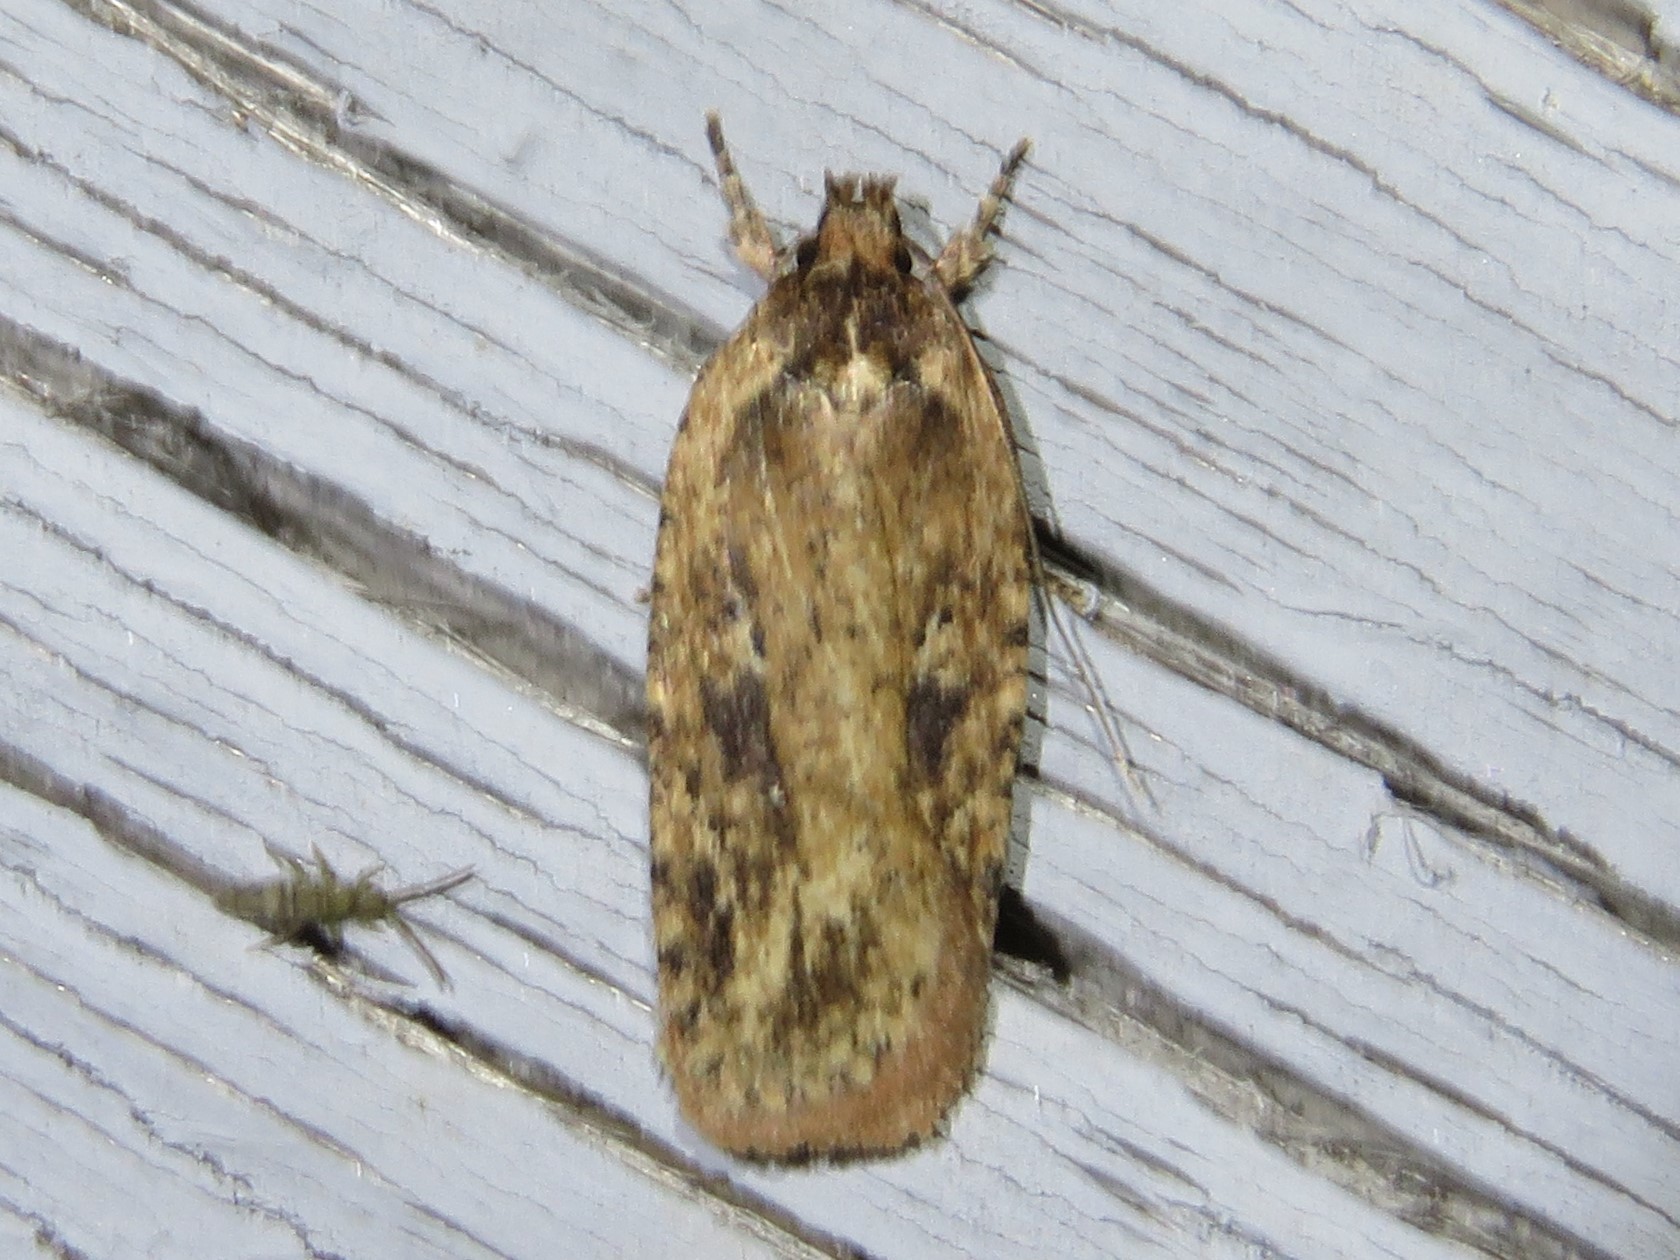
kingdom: Animalia
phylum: Arthropoda
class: Insecta
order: Lepidoptera
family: Depressariidae
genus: Agonopterix
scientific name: Agonopterix pulvipennella
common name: Goldenrod leafffolder
